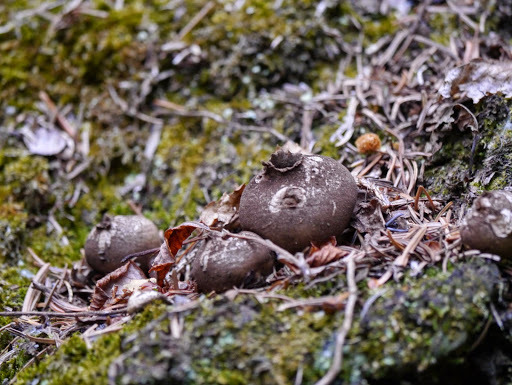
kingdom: Fungi
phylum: Basidiomycota
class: Agaricomycetes
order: Agaricales
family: Lycoperdaceae
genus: Lycoperdon
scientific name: Lycoperdon perlatum
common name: Common puffball
